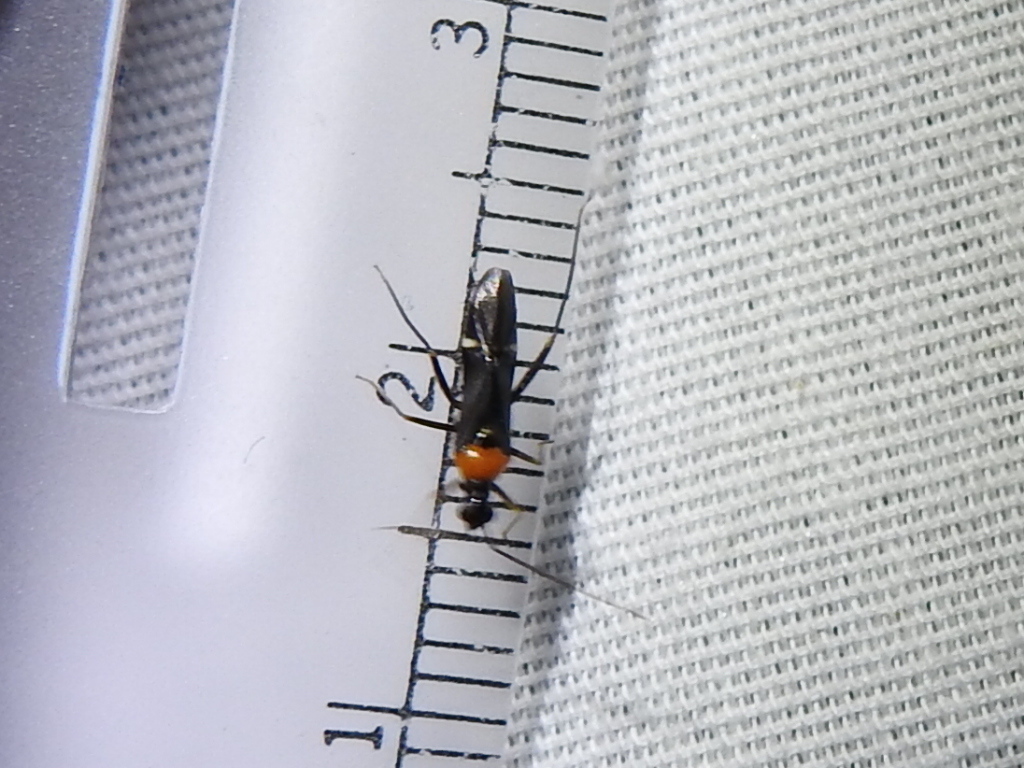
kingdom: Animalia
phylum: Arthropoda
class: Insecta
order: Hemiptera
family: Miridae
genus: Pseudoxenetus
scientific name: Pseudoxenetus regalis
